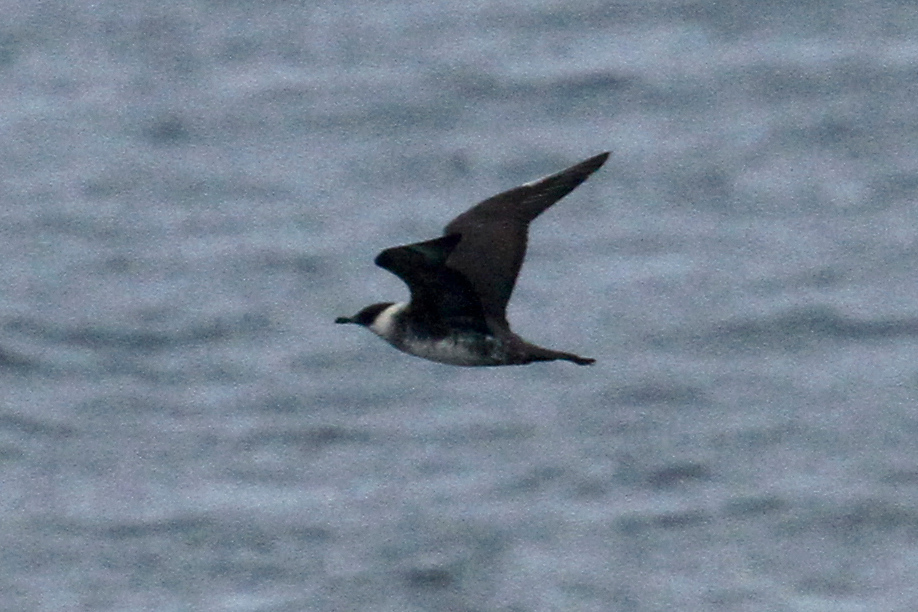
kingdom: Animalia
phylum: Chordata
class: Aves
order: Charadriiformes
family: Stercorariidae
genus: Stercorarius
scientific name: Stercorarius pomarinus
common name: Pomarine jaeger
